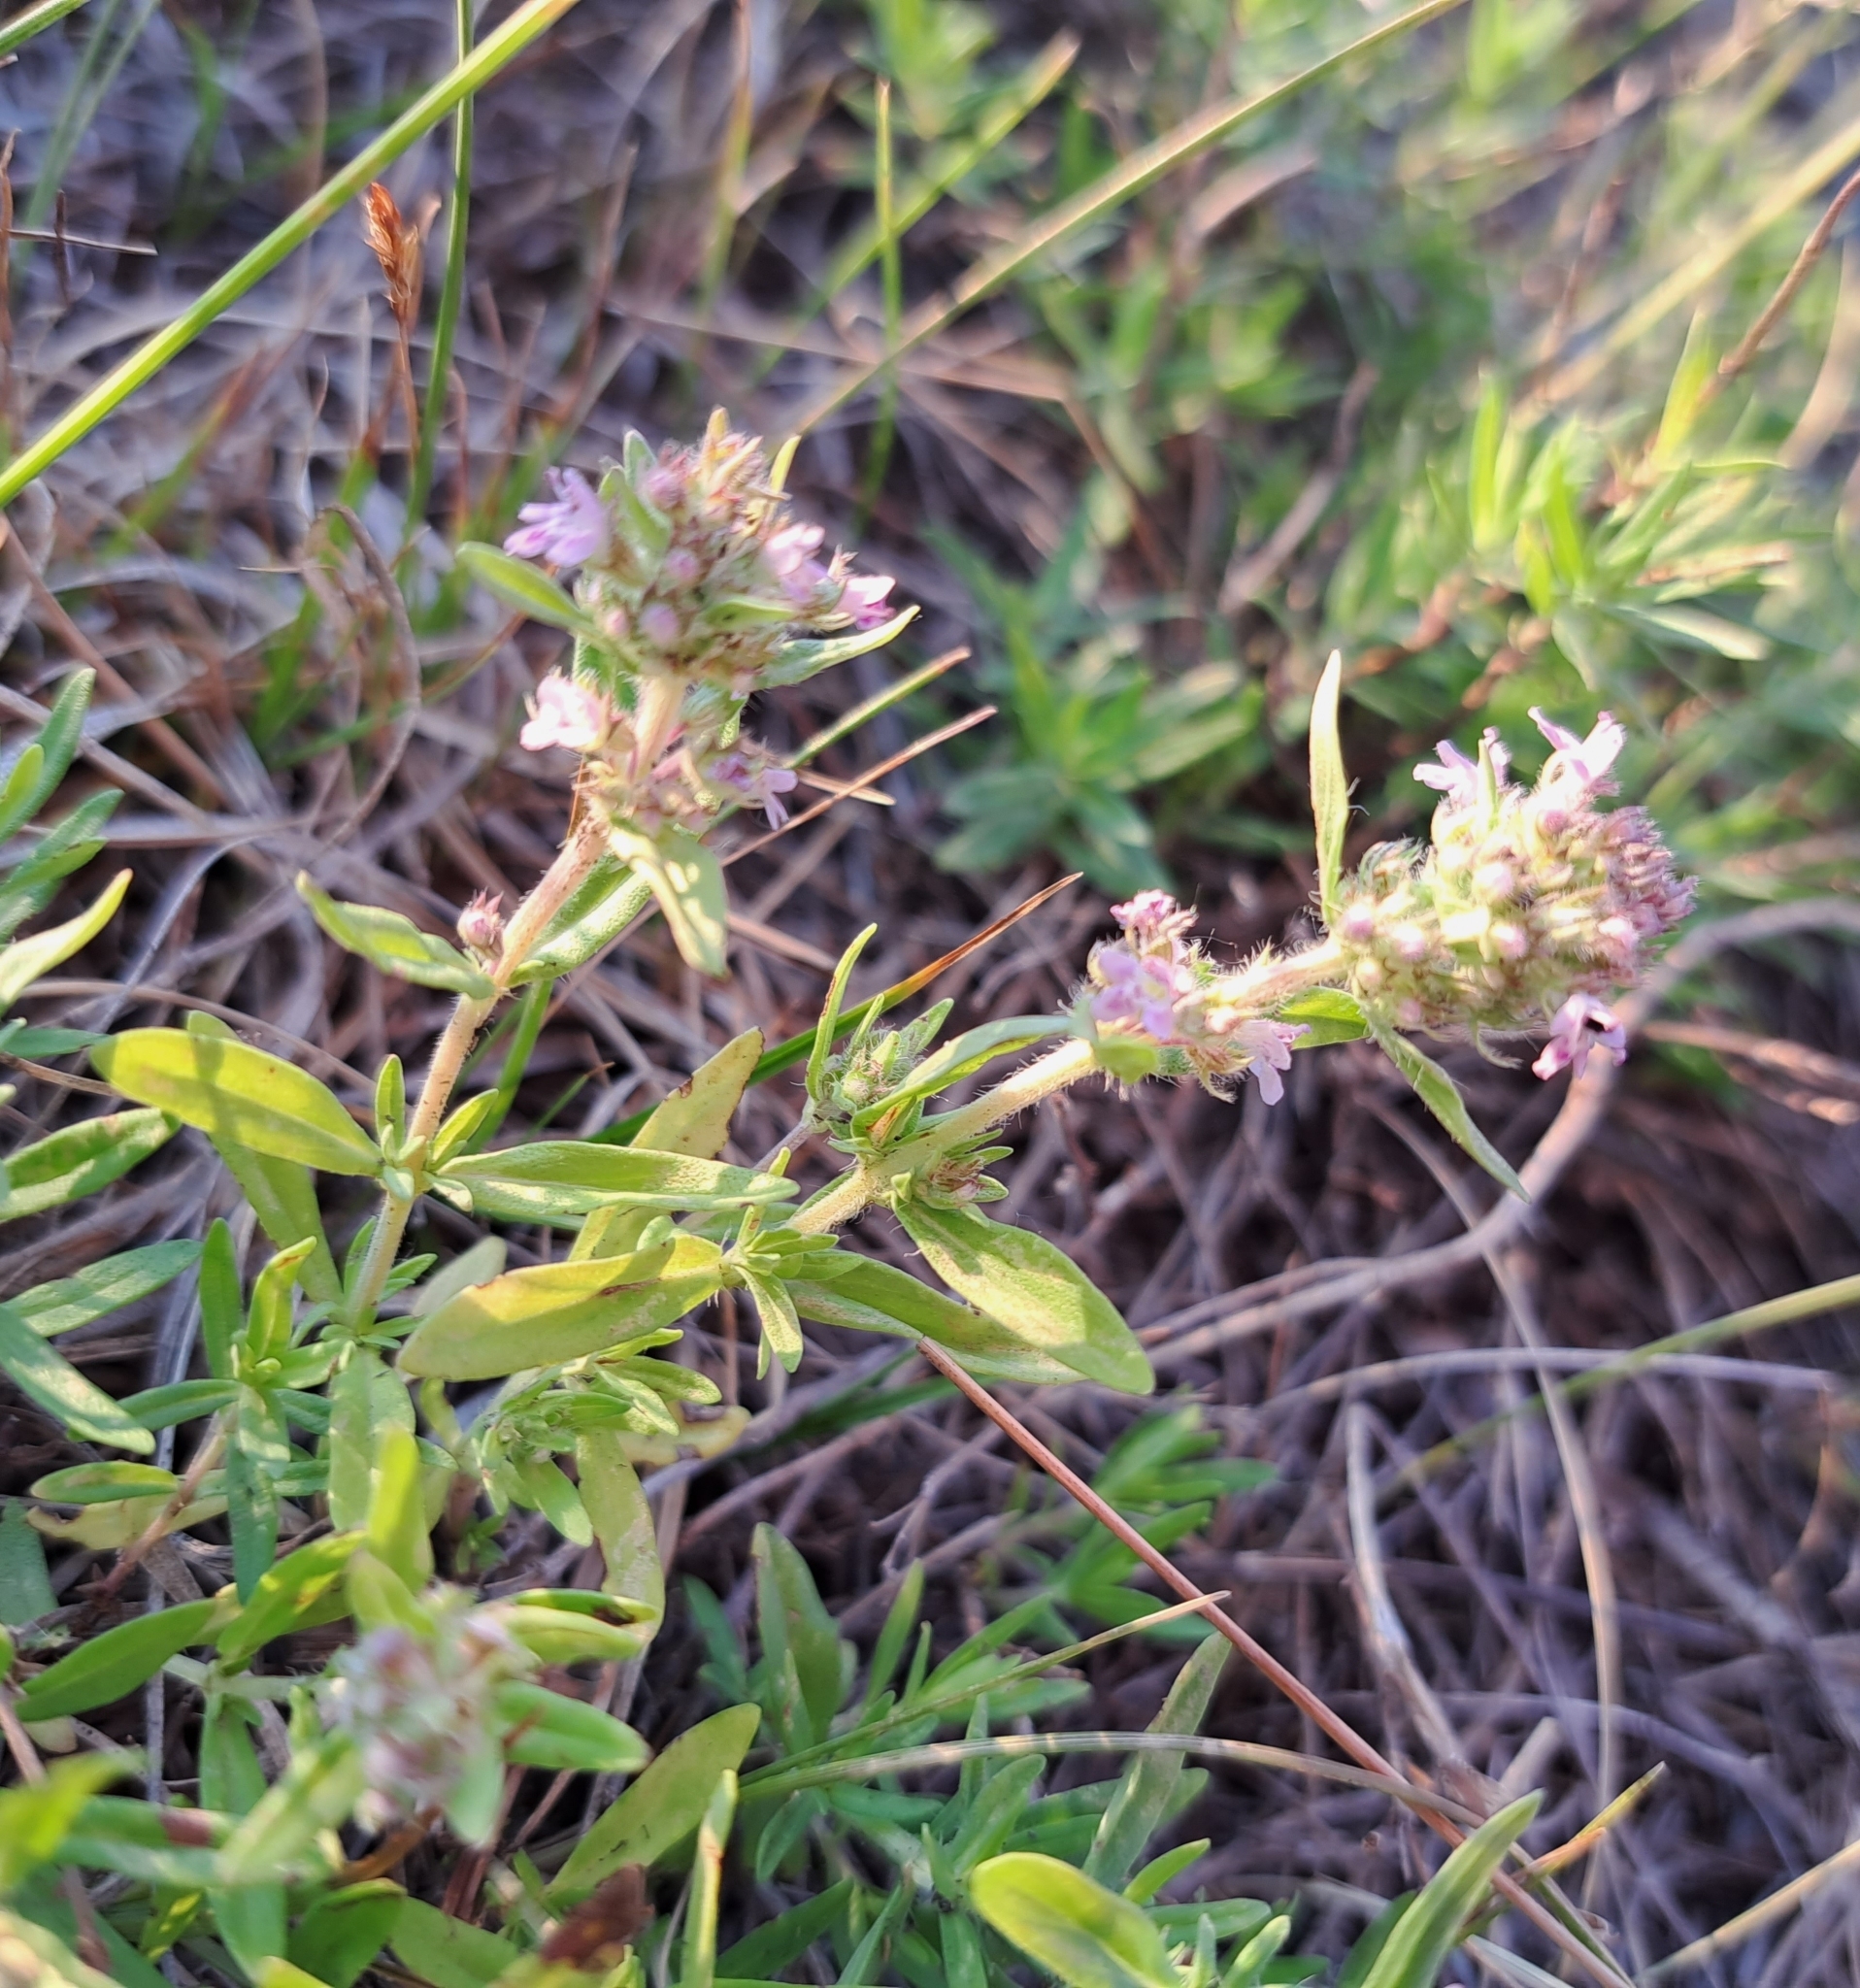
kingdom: Plantae
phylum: Tracheophyta
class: Magnoliopsida
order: Lamiales
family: Lamiaceae
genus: Thymus
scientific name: Thymus pannonicus
